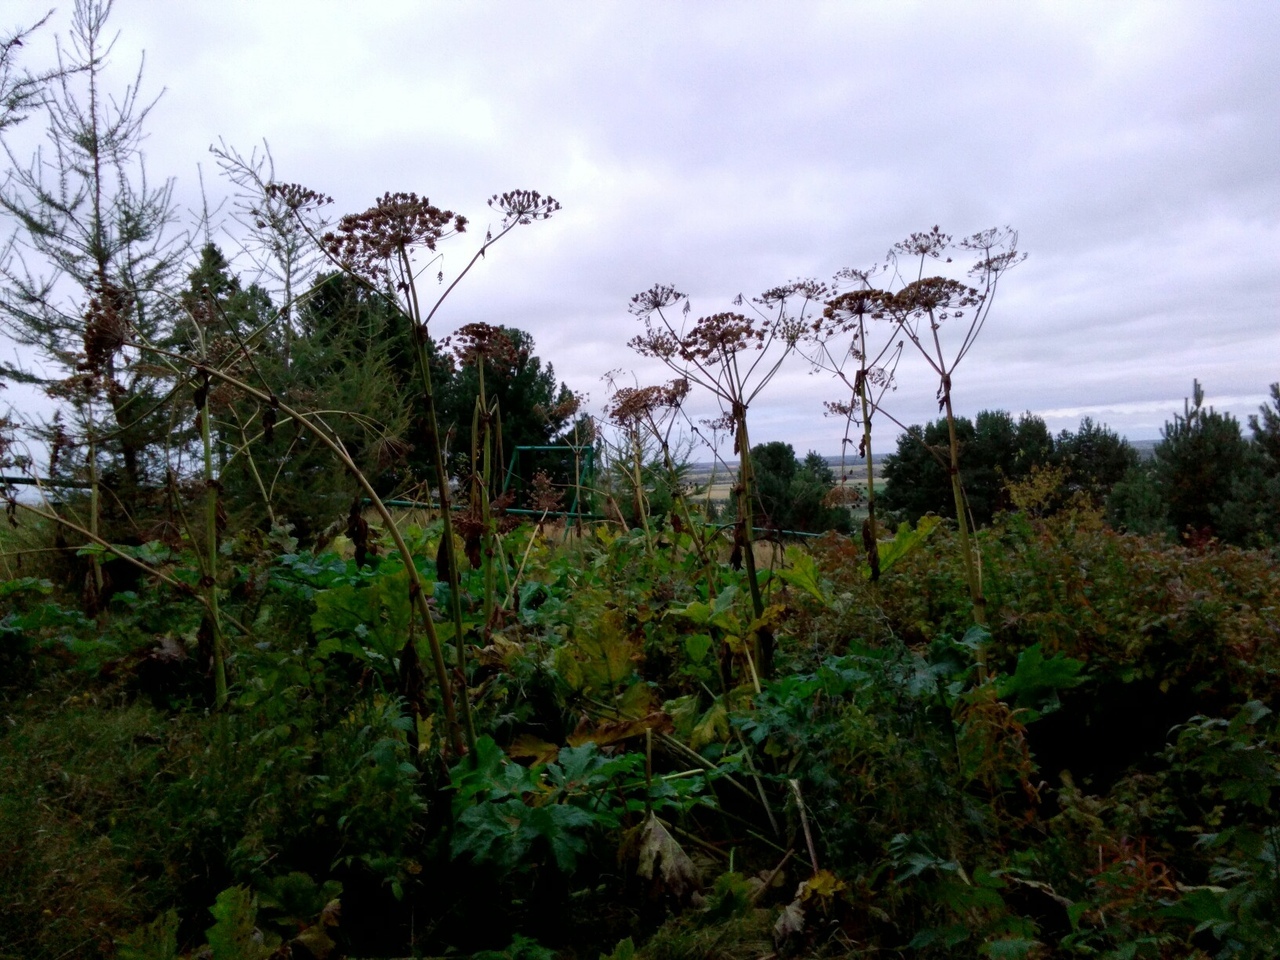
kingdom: Plantae
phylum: Tracheophyta
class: Magnoliopsida
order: Apiales
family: Apiaceae
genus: Heracleum
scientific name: Heracleum sosnowskyi
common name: Sosnowsky's hogweed
